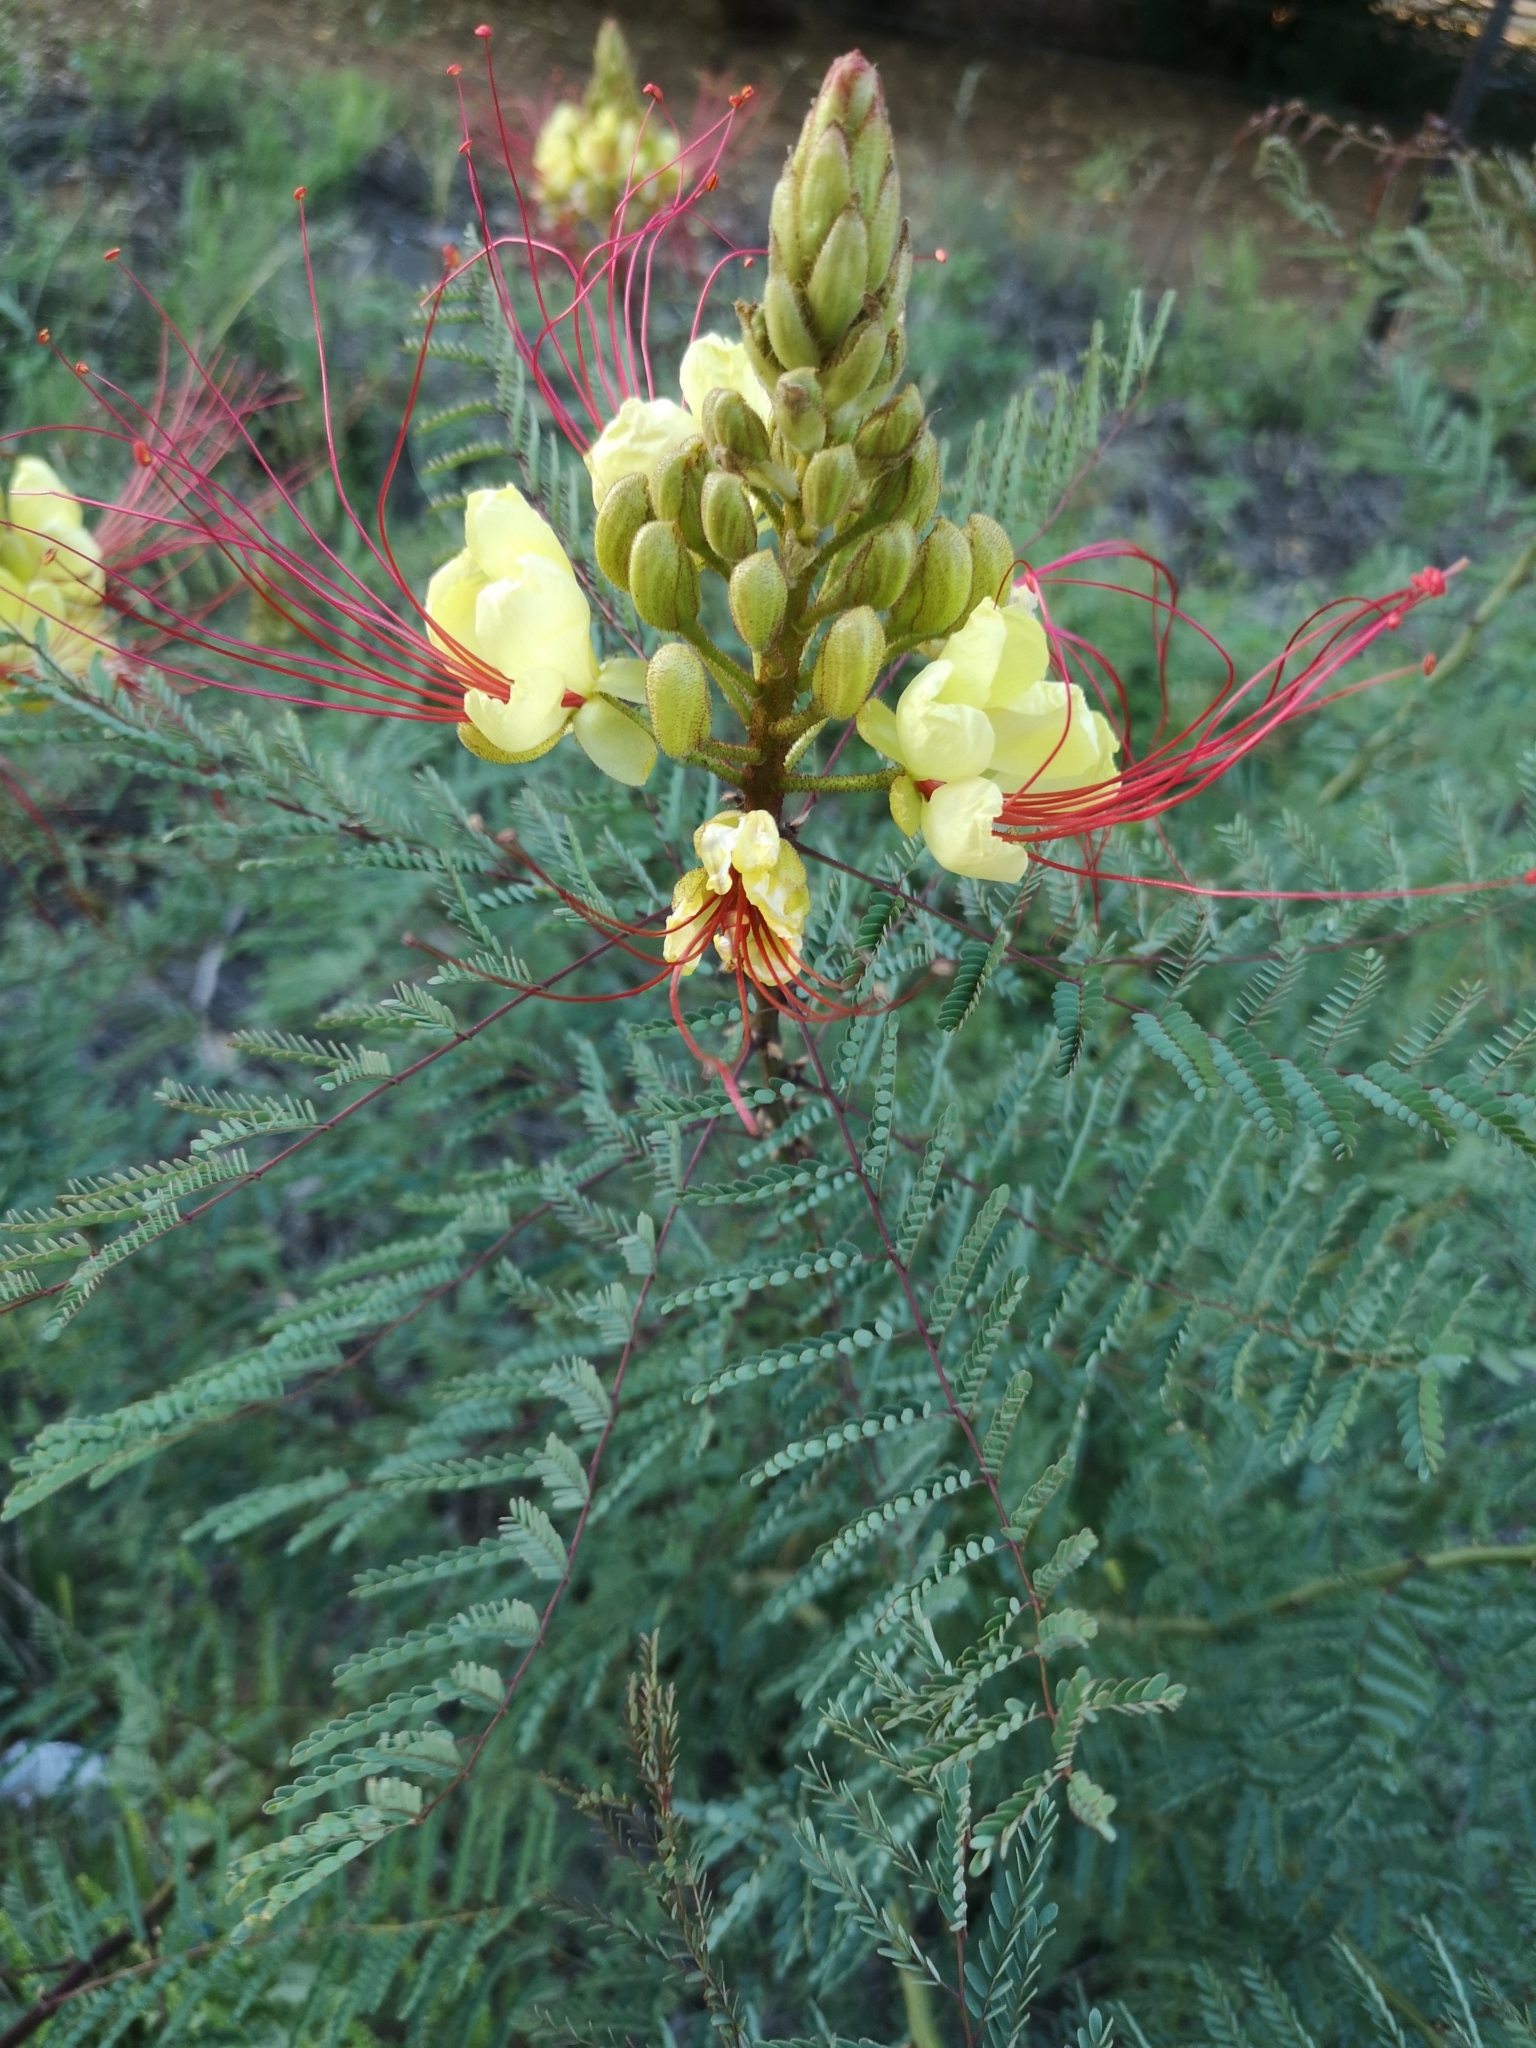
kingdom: Plantae
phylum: Tracheophyta
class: Magnoliopsida
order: Fabales
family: Fabaceae
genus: Erythrostemon
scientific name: Erythrostemon gilliesii
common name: Bird-of-paradise shrub
